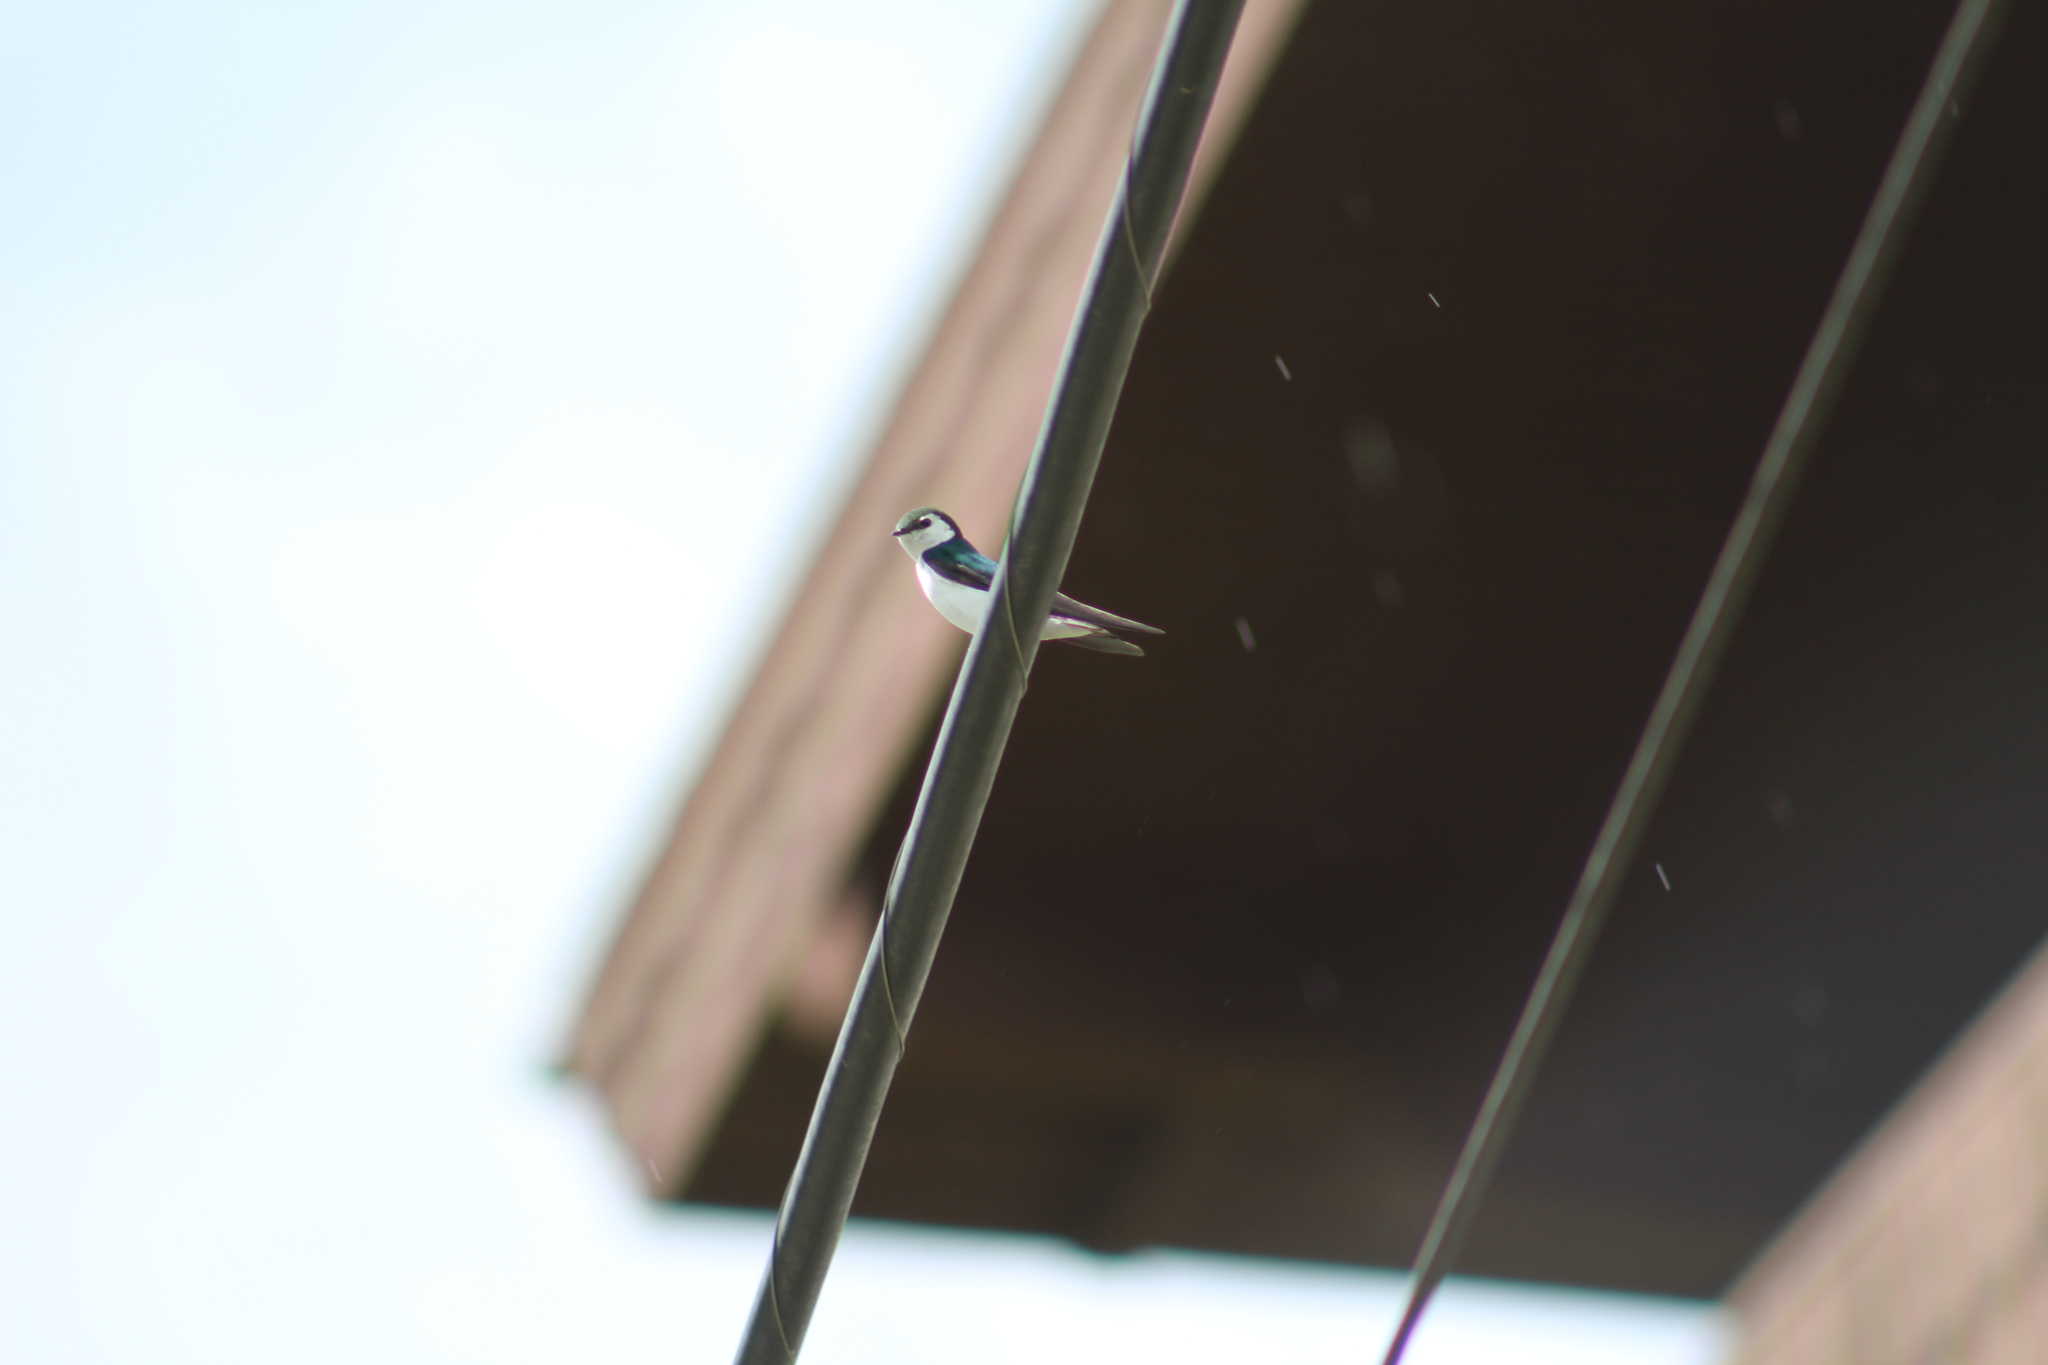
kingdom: Animalia
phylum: Chordata
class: Aves
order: Passeriformes
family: Hirundinidae
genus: Tachycineta
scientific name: Tachycineta thalassina
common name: Violet-green swallow
